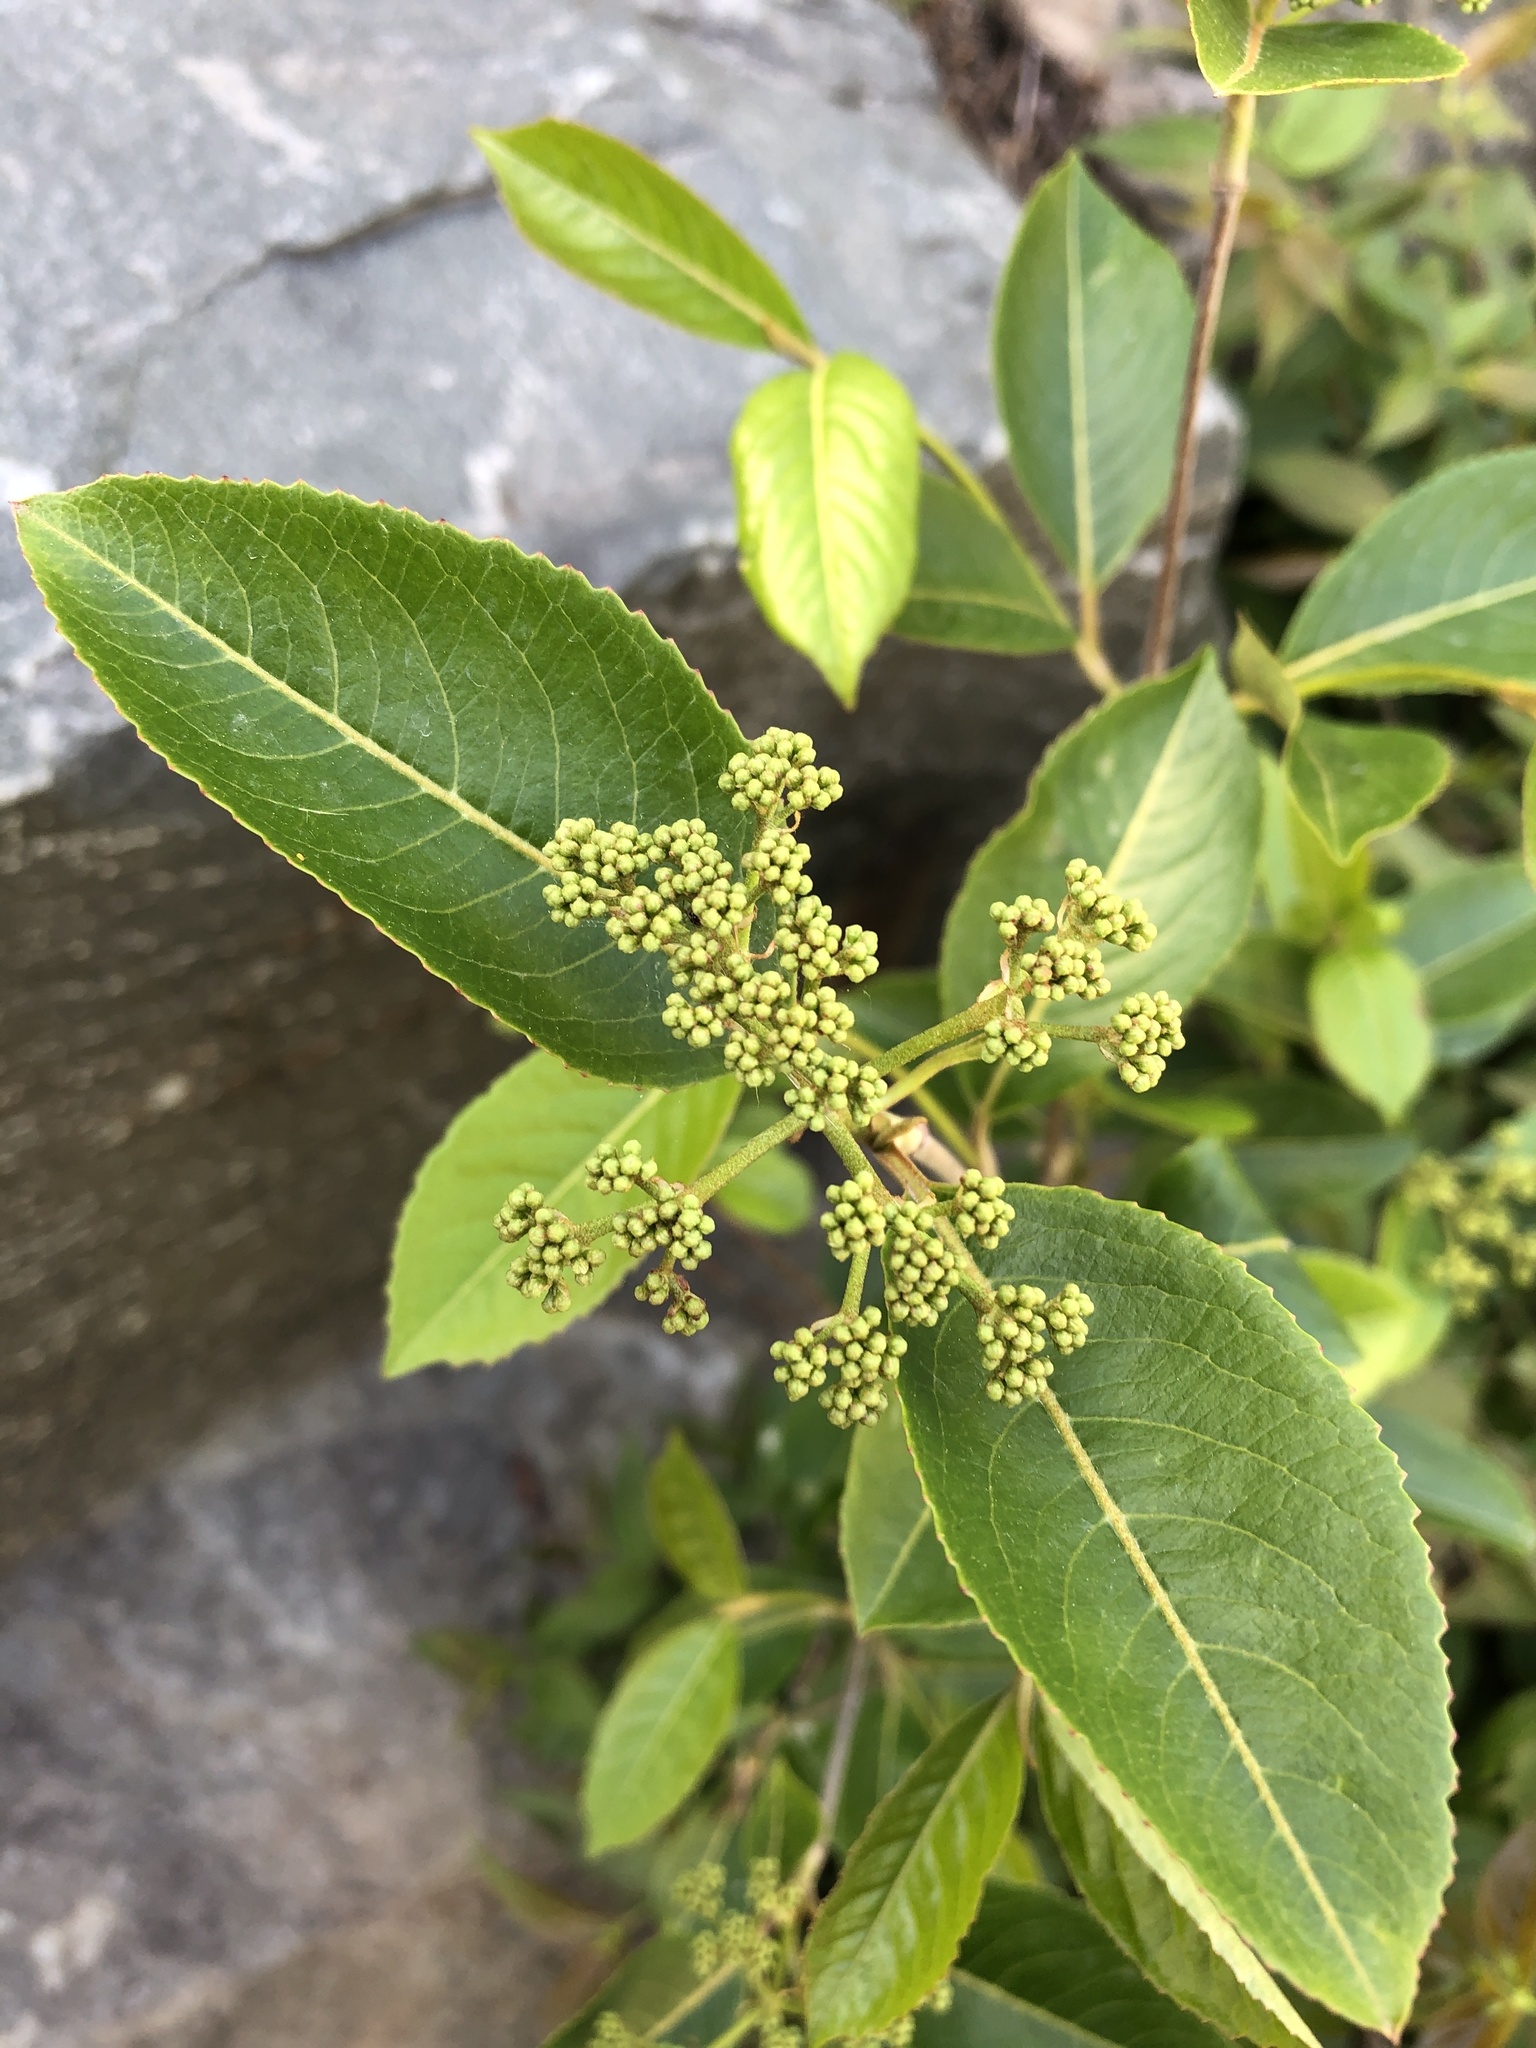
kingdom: Plantae
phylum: Tracheophyta
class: Magnoliopsida
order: Dipsacales
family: Viburnaceae
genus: Viburnum
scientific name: Viburnum cassinoides
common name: Swamp haw
